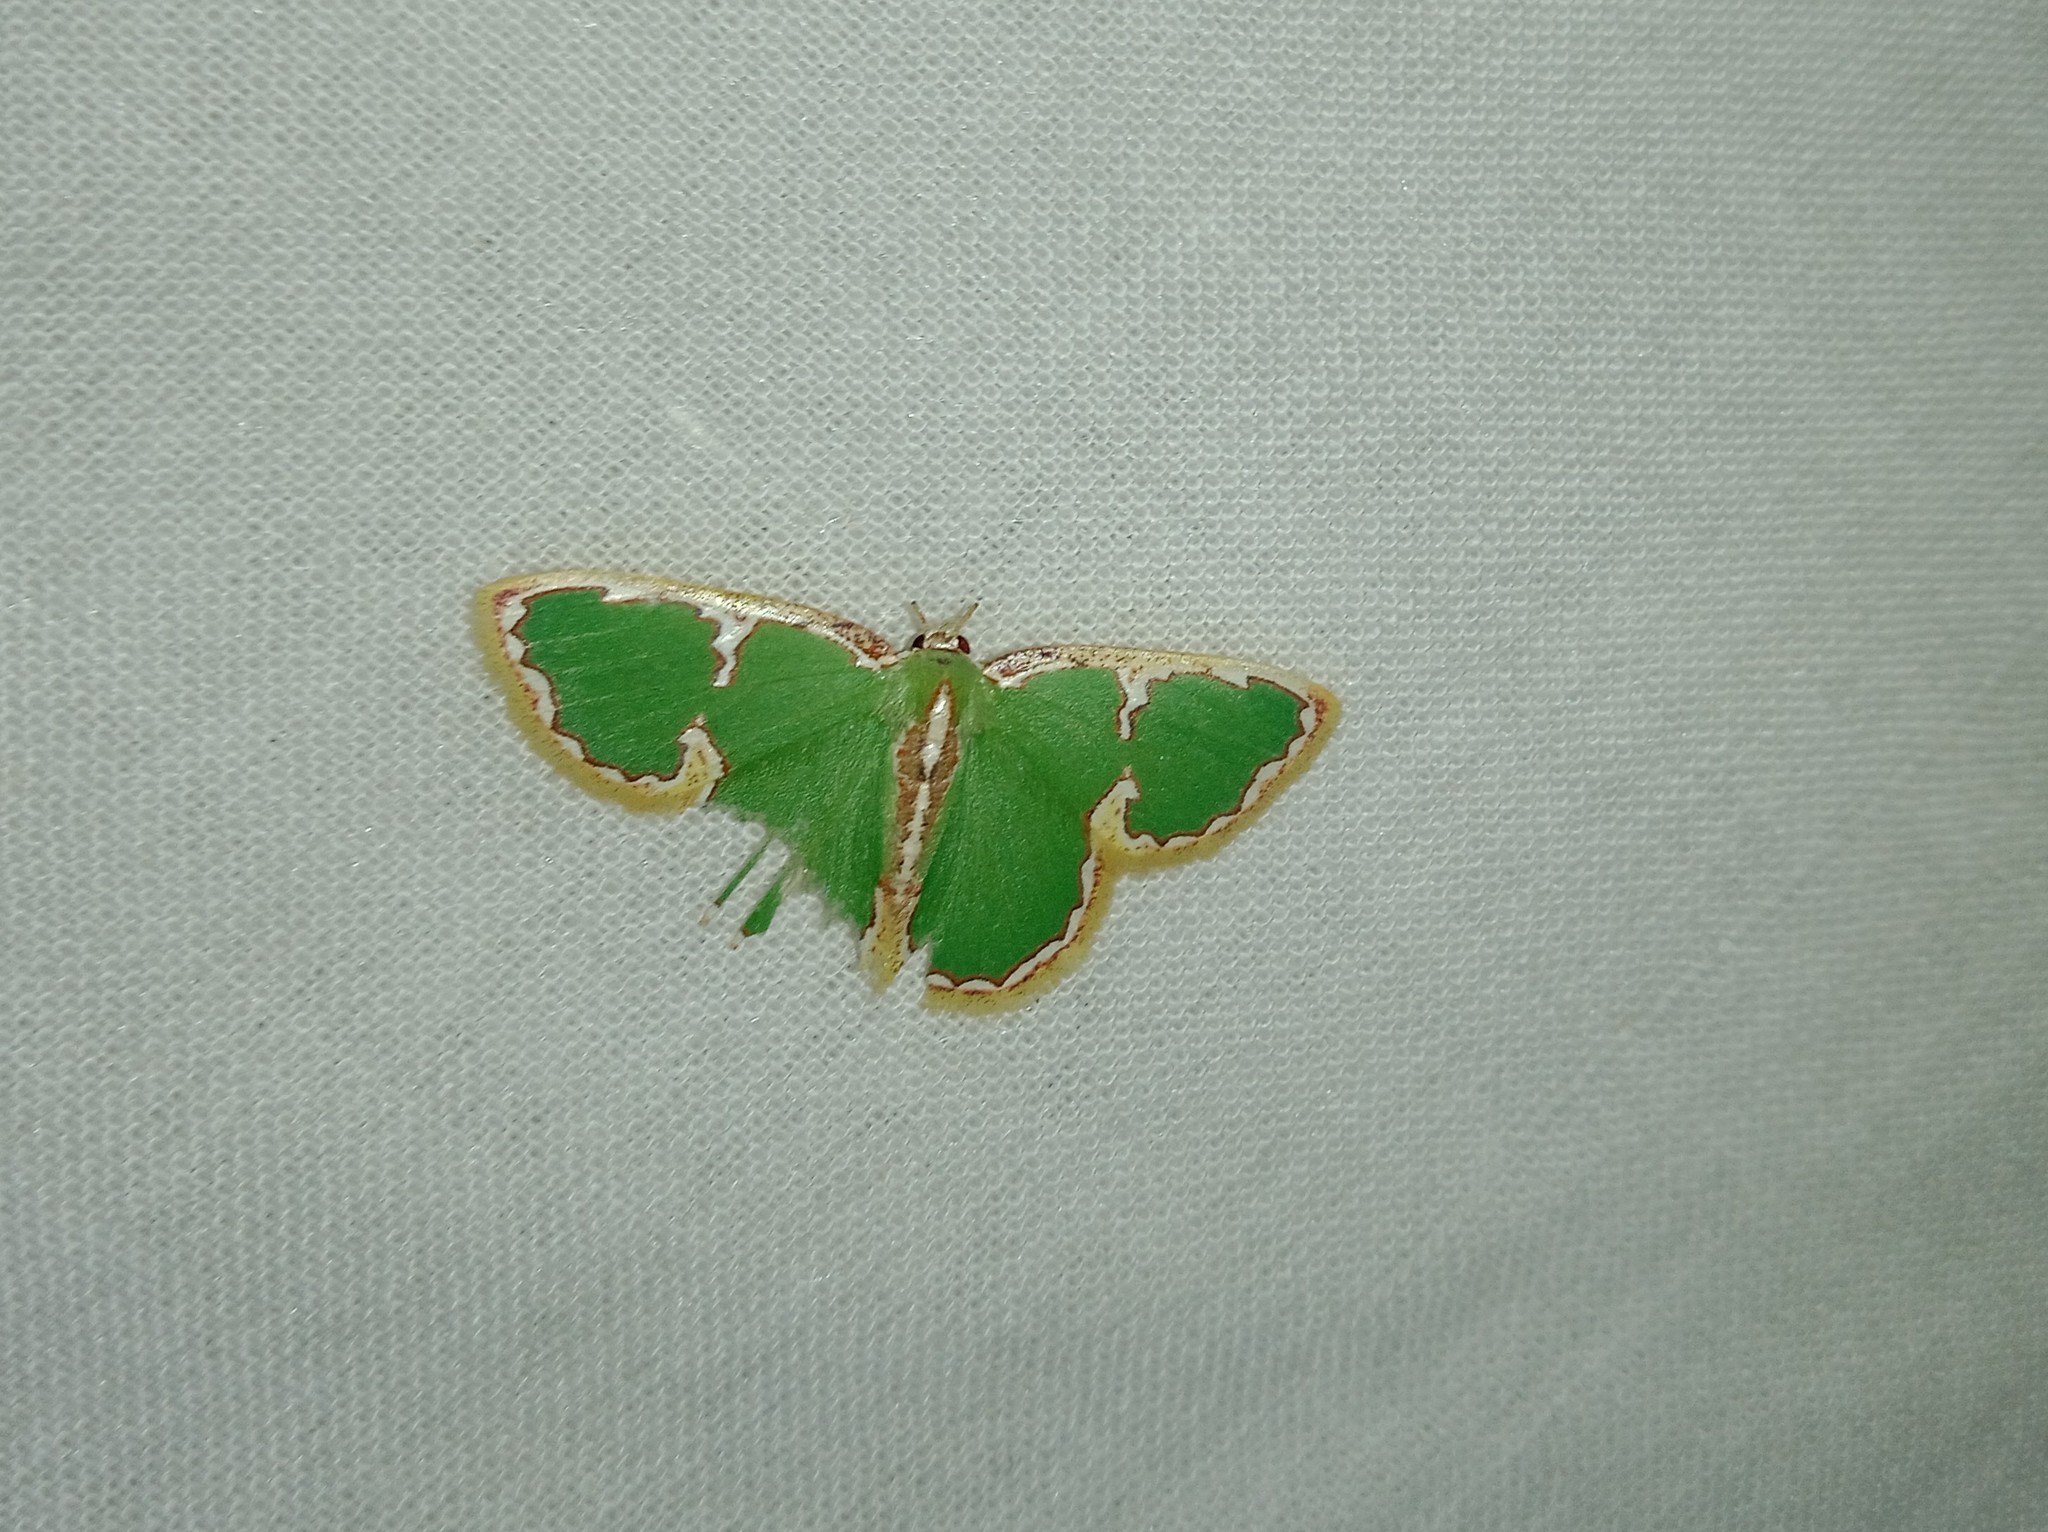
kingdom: Animalia
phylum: Arthropoda
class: Insecta
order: Lepidoptera
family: Geometridae
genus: Comostola
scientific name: Comostola chlorargyra
